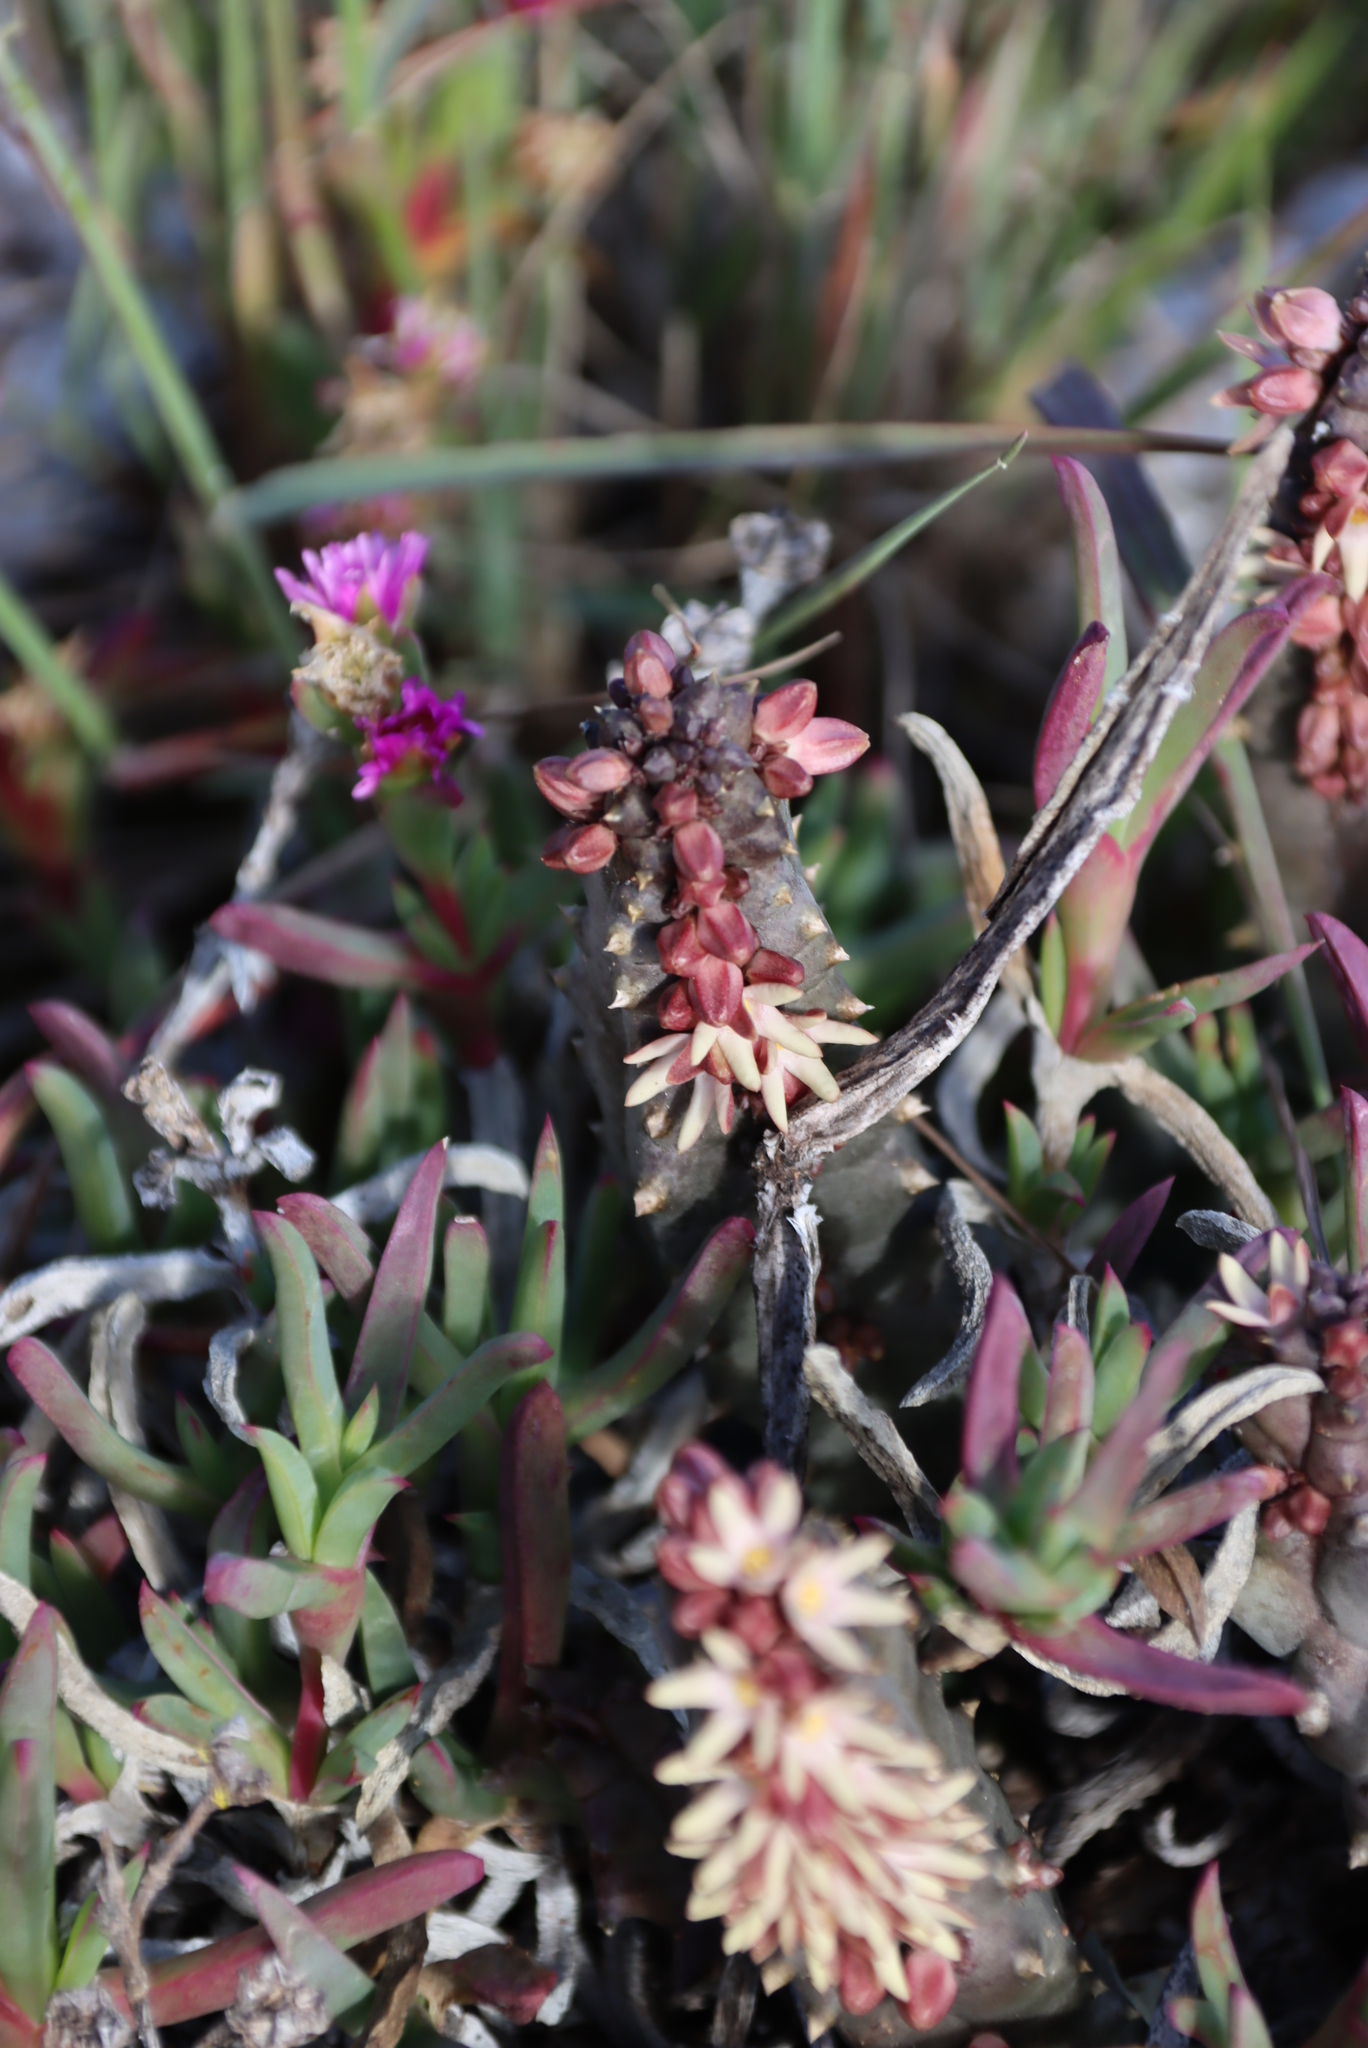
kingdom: Plantae
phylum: Tracheophyta
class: Magnoliopsida
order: Gentianales
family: Apocynaceae
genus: Ceropegia
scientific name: Ceropegia incarnata
